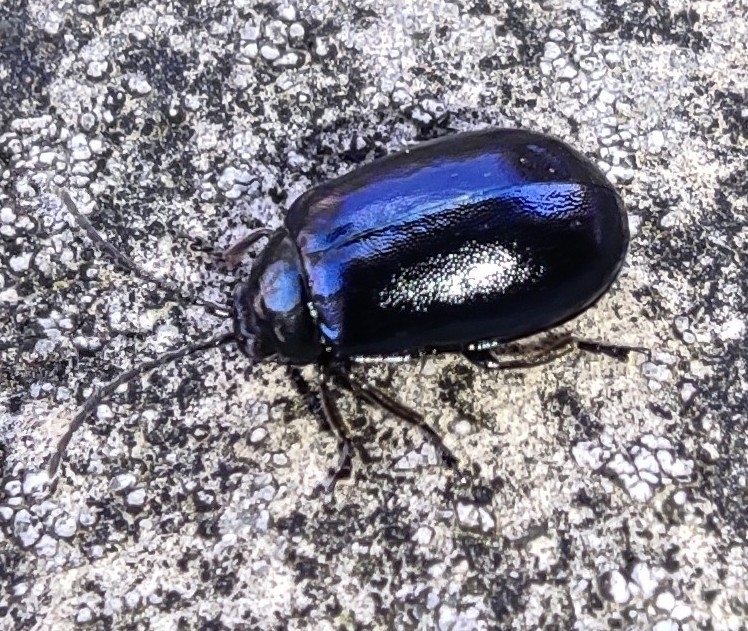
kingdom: Animalia
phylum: Arthropoda
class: Insecta
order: Coleoptera
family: Chrysomelidae
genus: Agelastica
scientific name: Agelastica alni
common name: Alder leaf beetle
